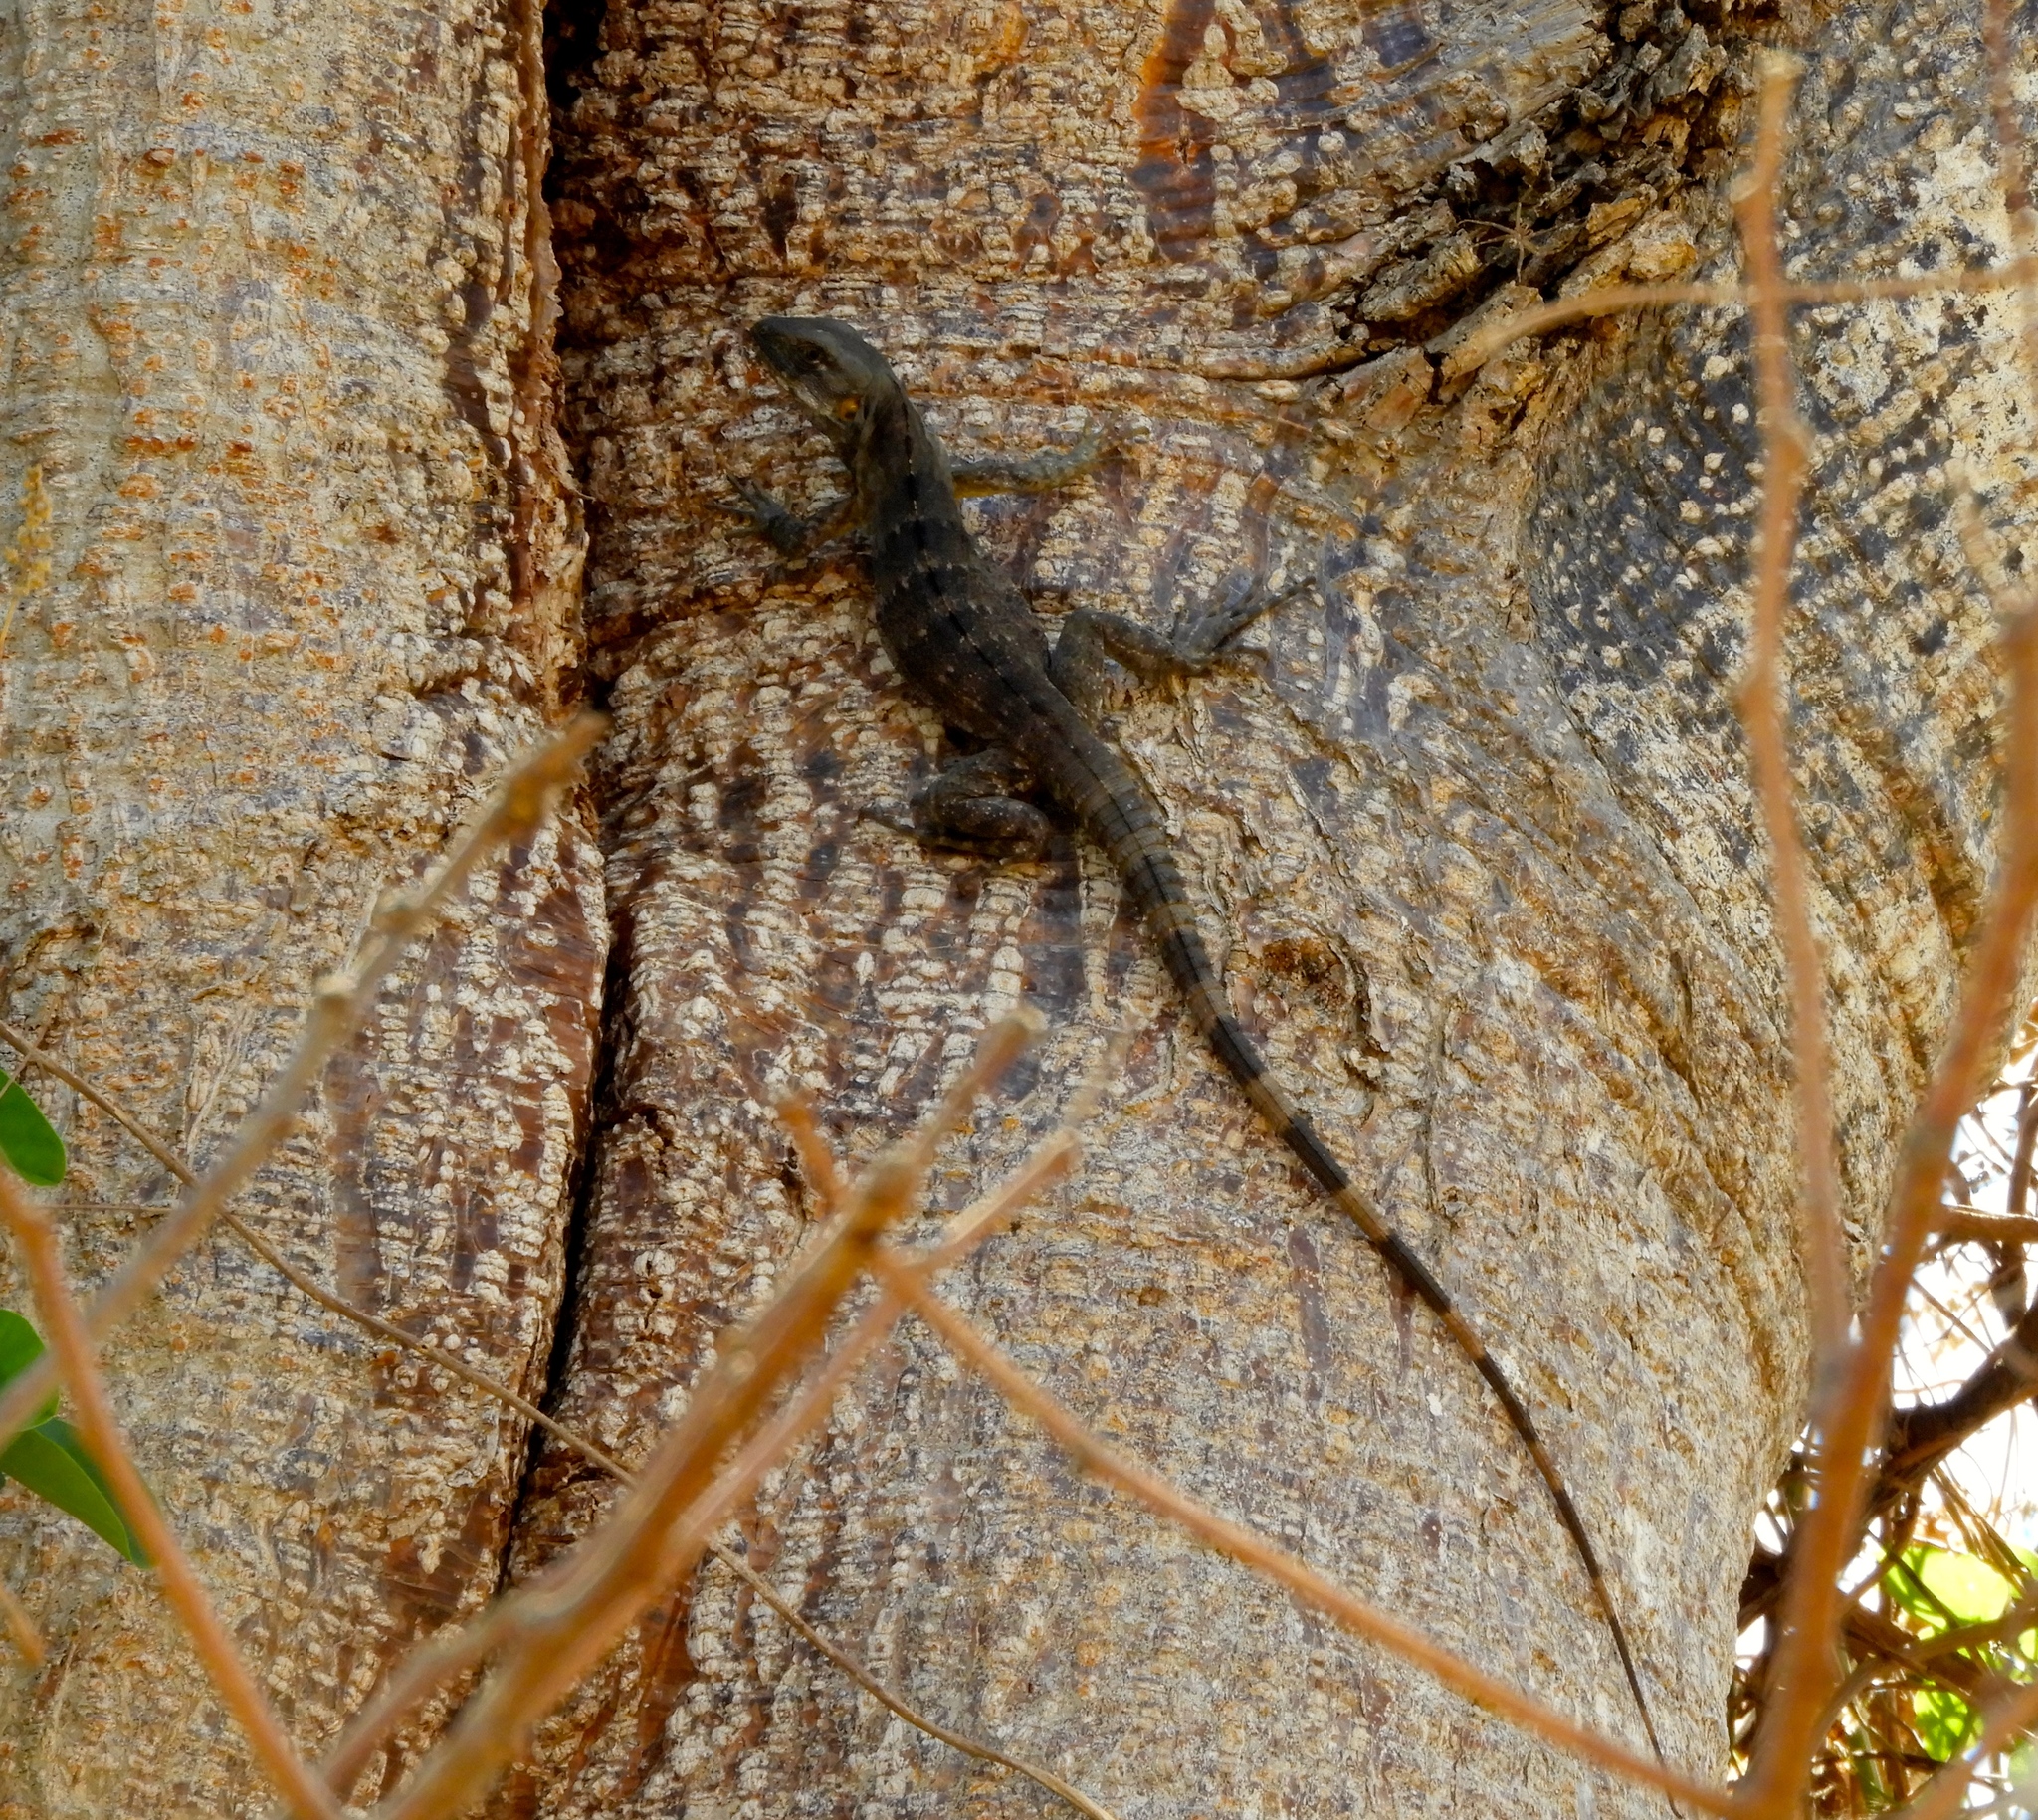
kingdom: Animalia
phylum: Chordata
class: Squamata
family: Iguanidae
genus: Ctenosaura
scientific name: Ctenosaura pectinata
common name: Guerreran spiny-tailed iguana
